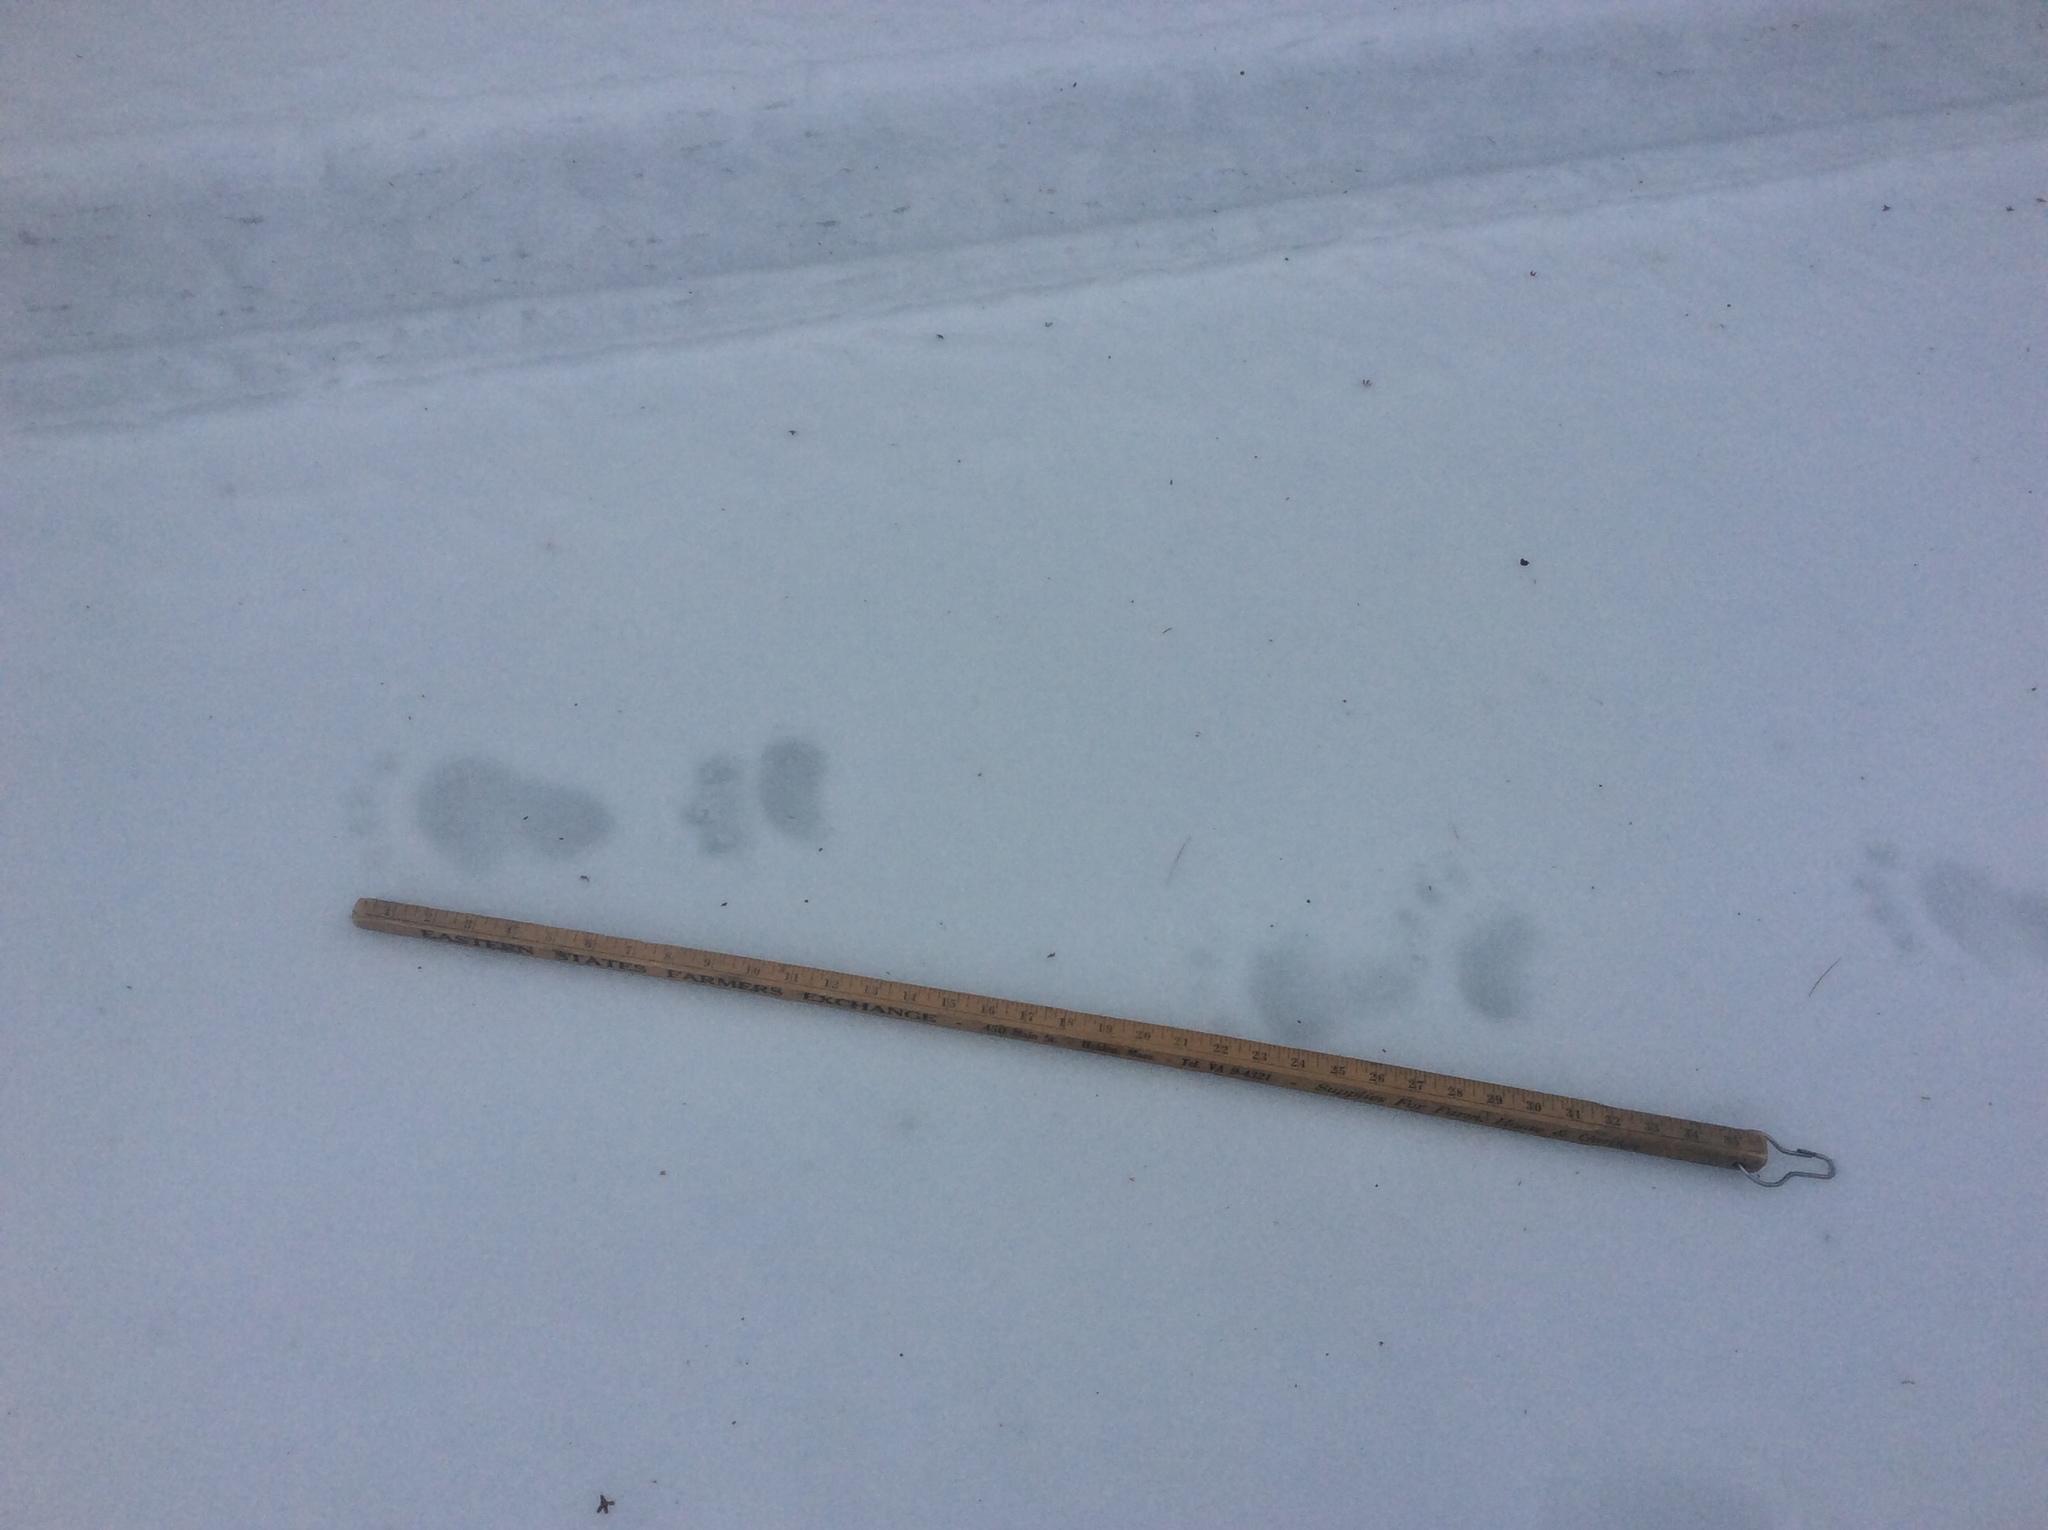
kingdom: Animalia
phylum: Chordata
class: Mammalia
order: Carnivora
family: Ursidae
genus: Ursus
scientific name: Ursus americanus
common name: American black bear
